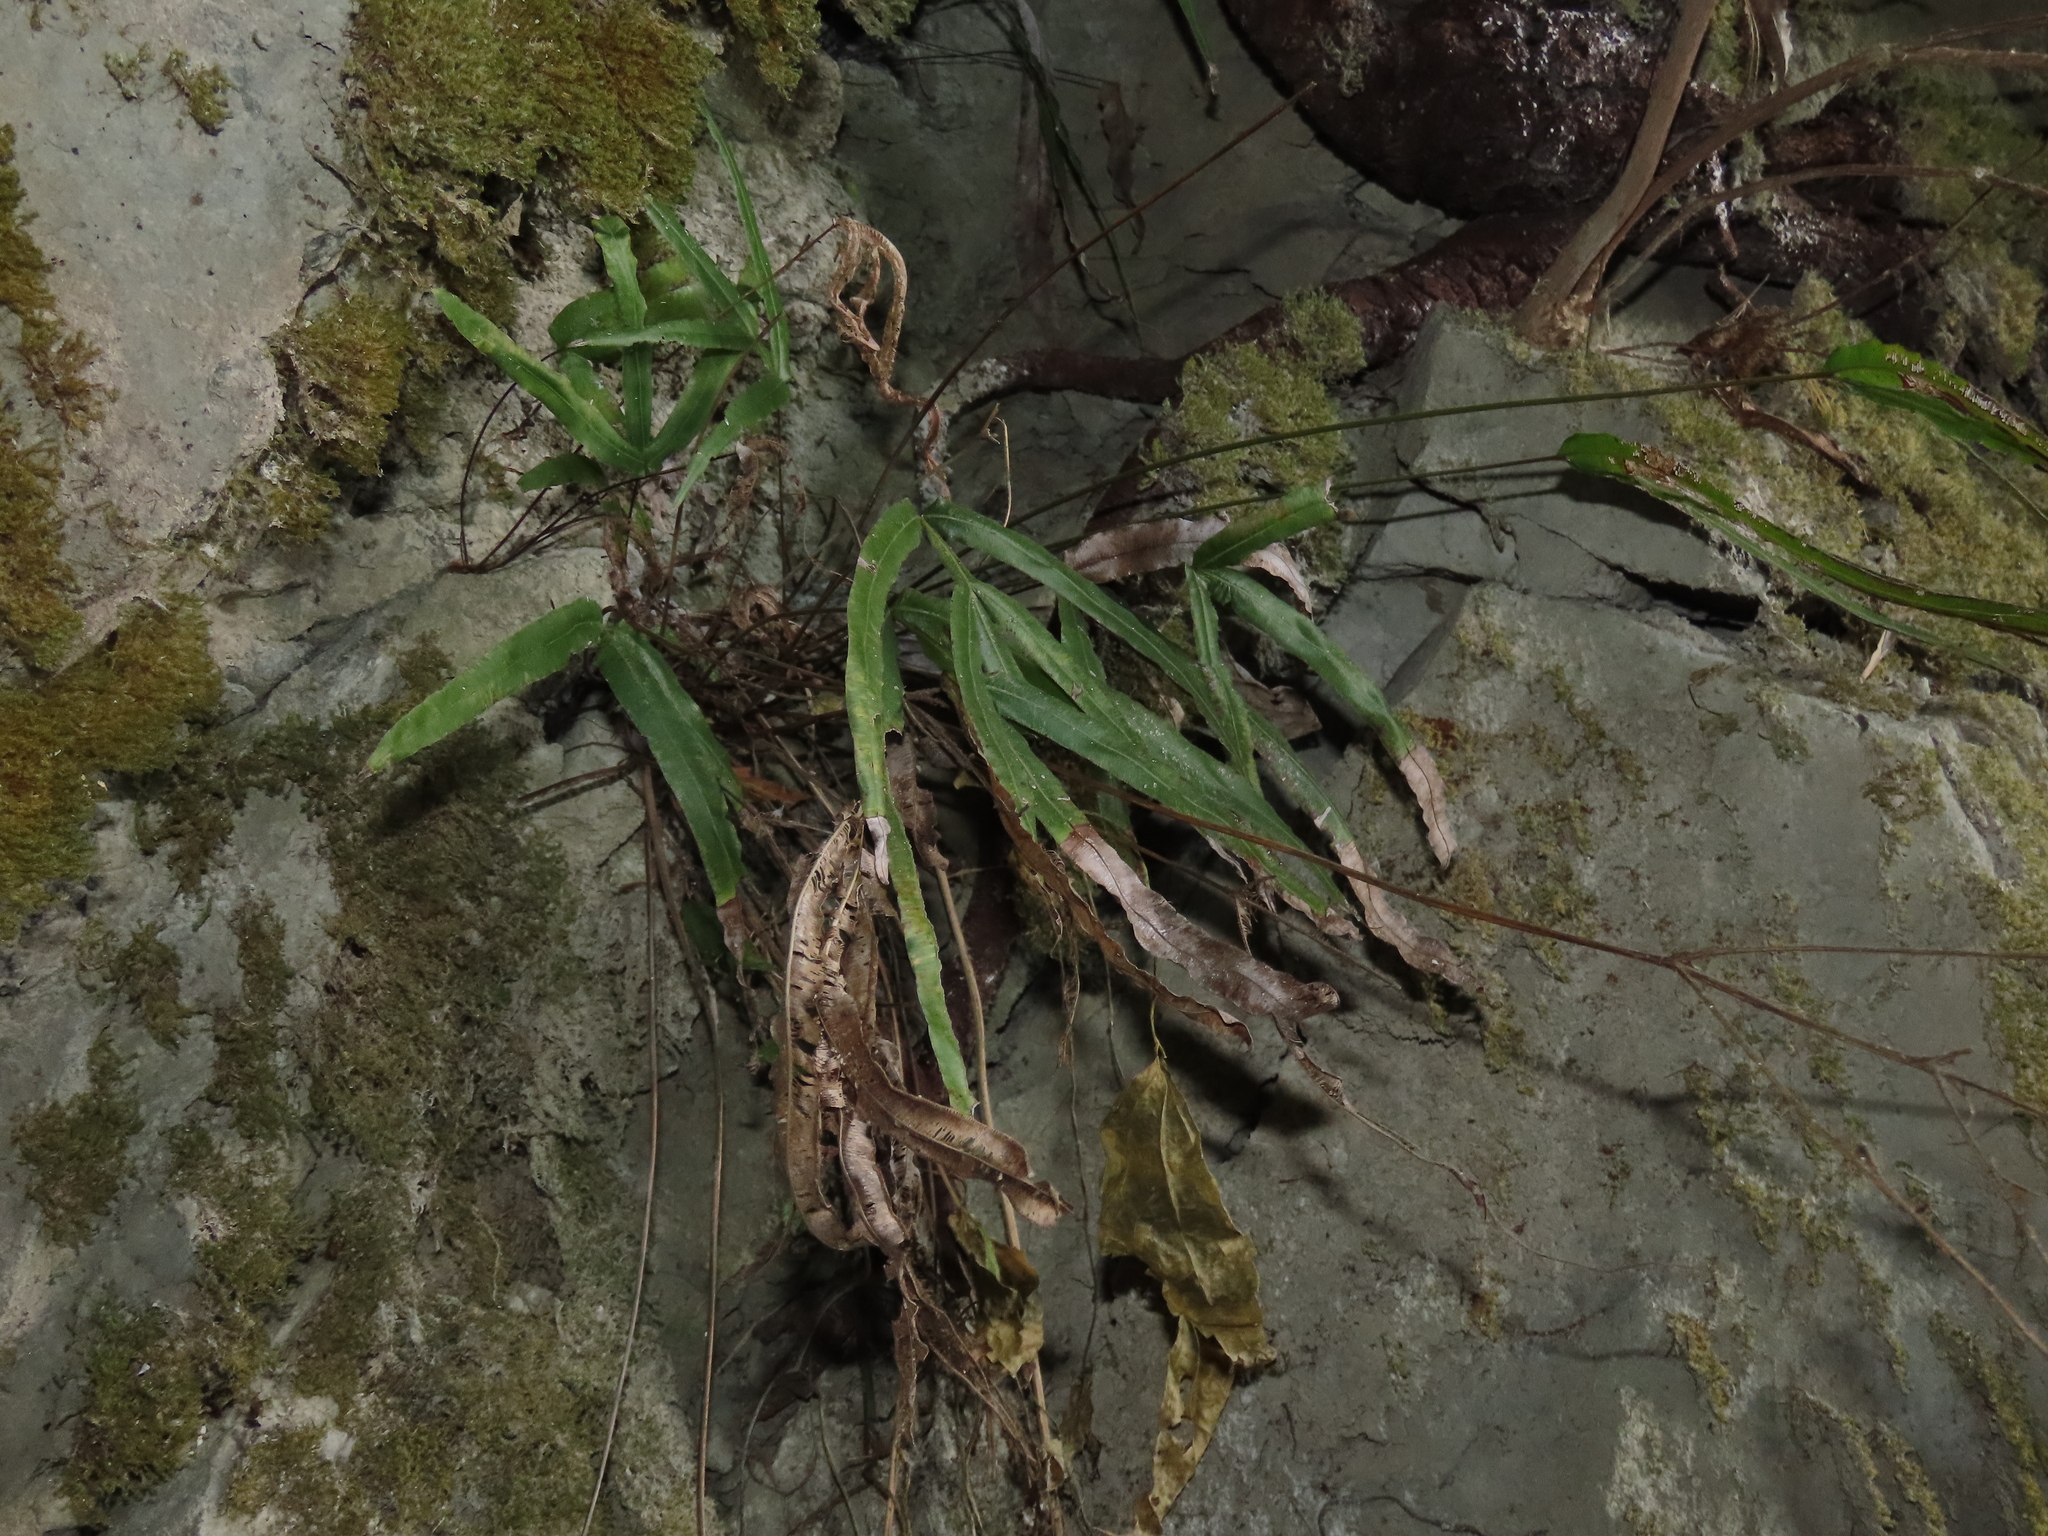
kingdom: Plantae
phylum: Tracheophyta
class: Polypodiopsida
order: Polypodiales
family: Pteridaceae
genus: Pteris
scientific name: Pteris longipinna
